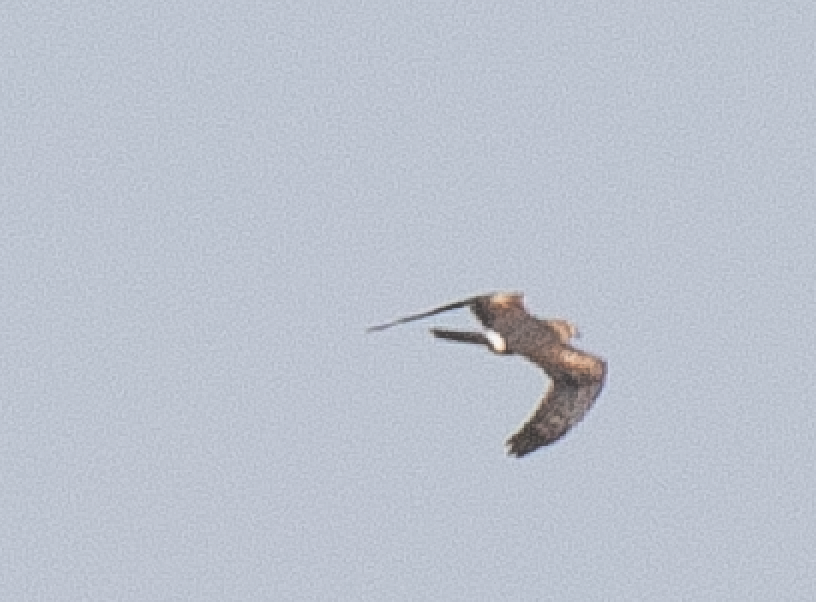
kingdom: Animalia
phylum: Chordata
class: Aves
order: Accipitriformes
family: Accipitridae
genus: Circus
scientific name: Circus pygargus
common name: Montagu's harrier
